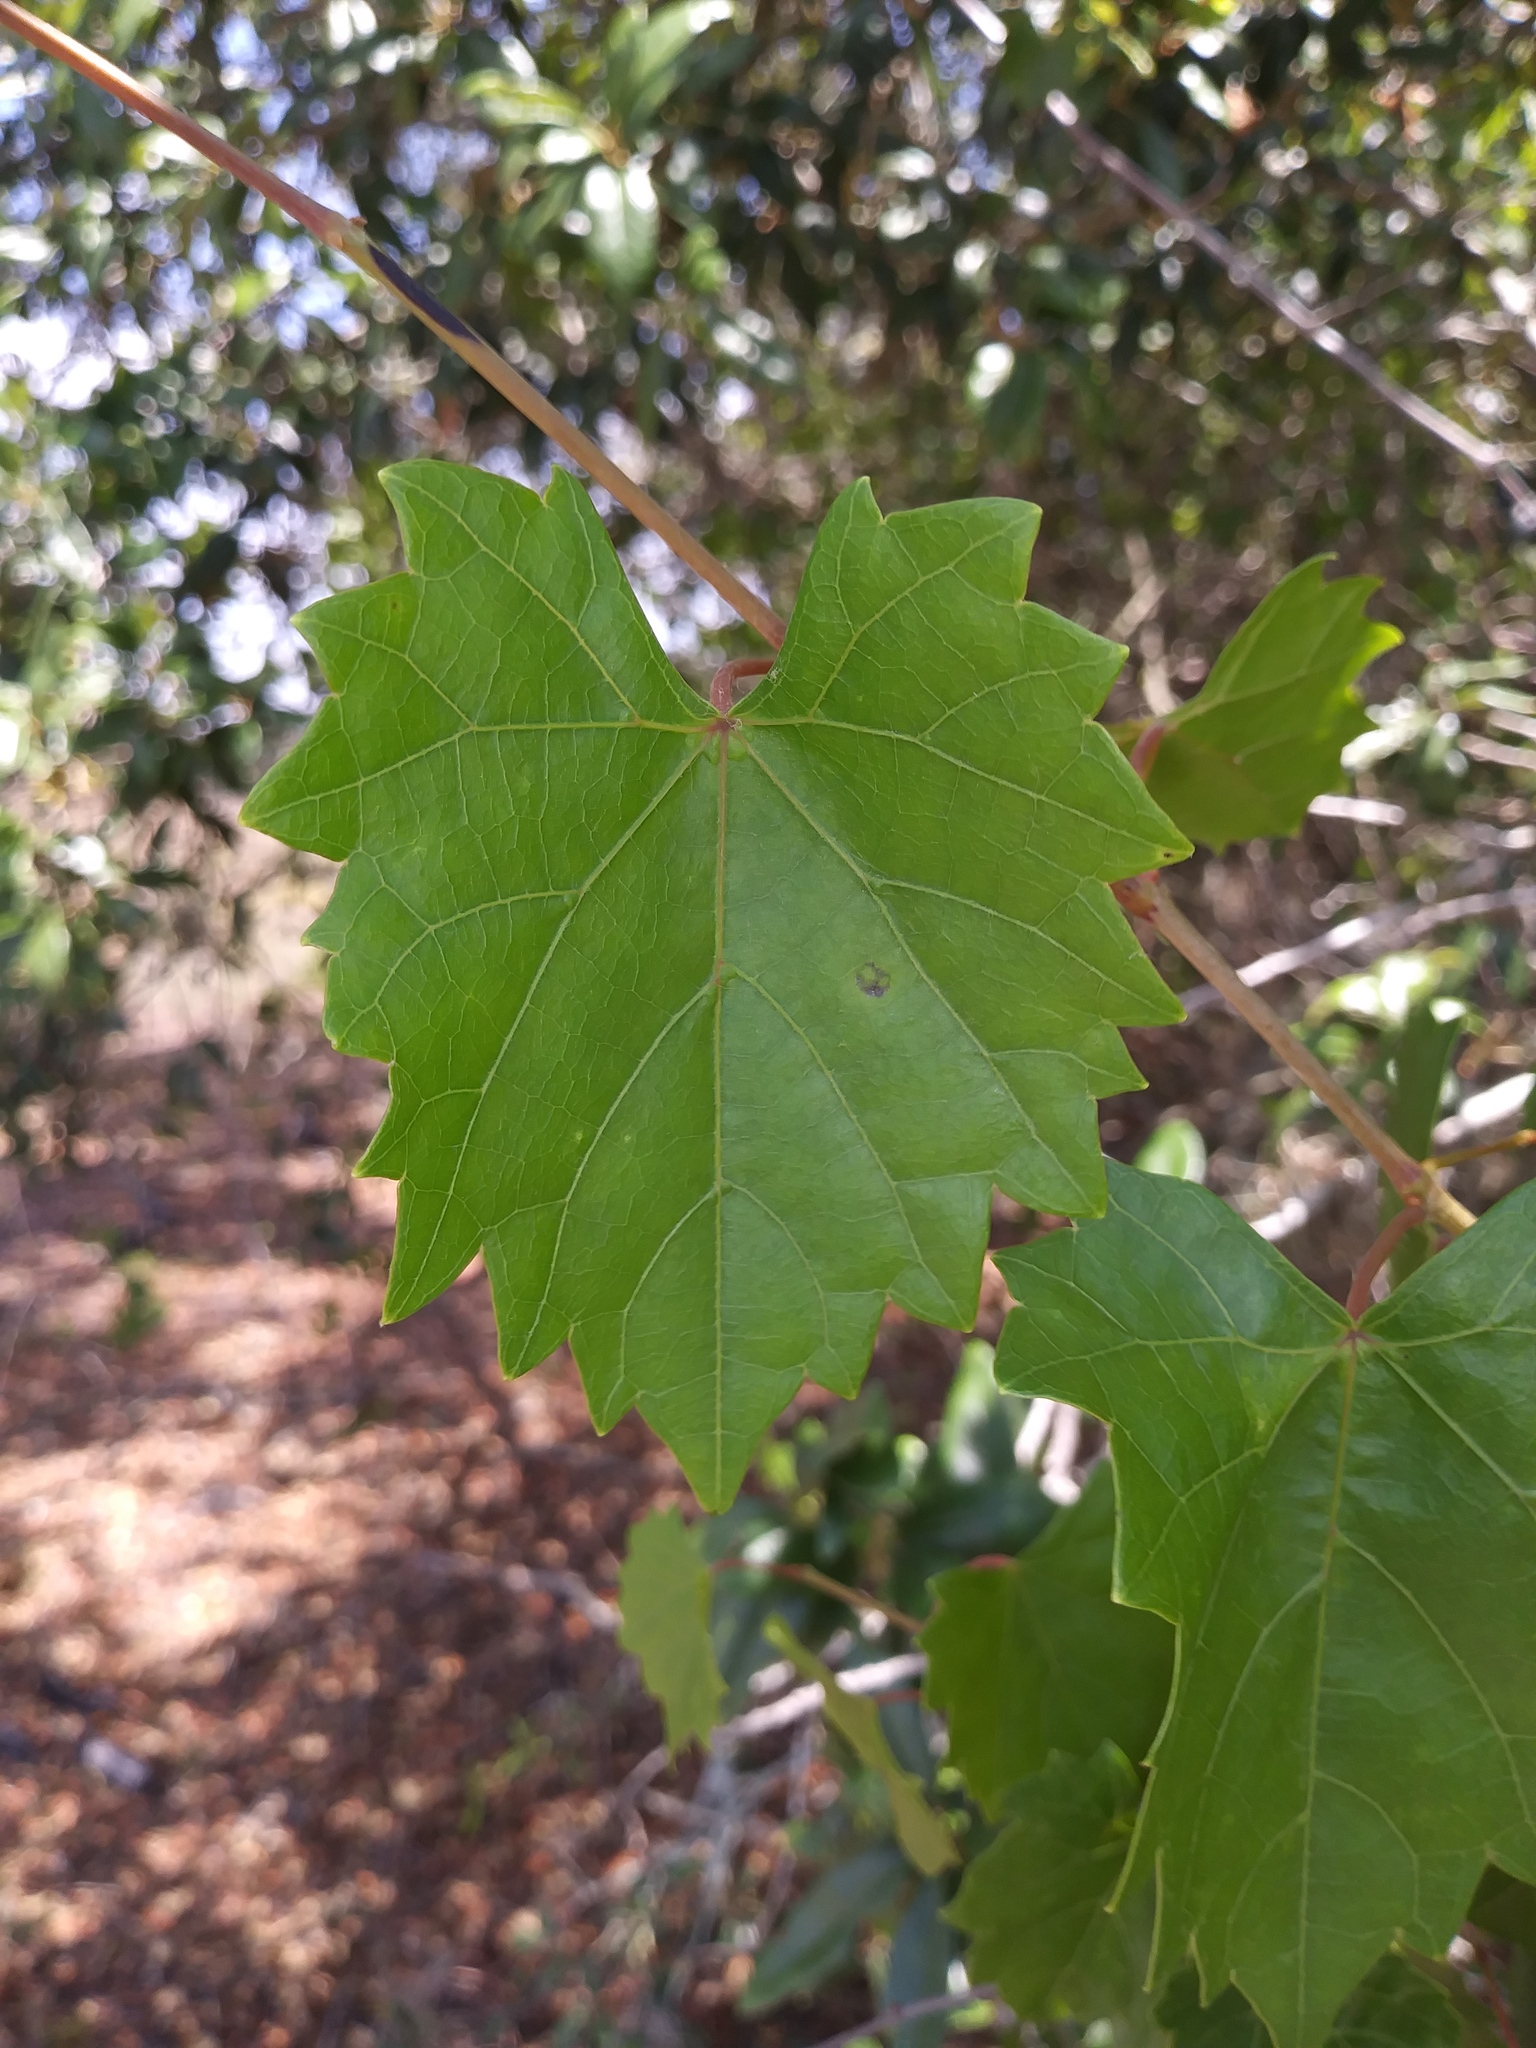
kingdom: Plantae
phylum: Tracheophyta
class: Magnoliopsida
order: Vitales
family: Vitaceae
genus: Vitis
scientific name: Vitis rotundifolia
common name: Muscadine grape
